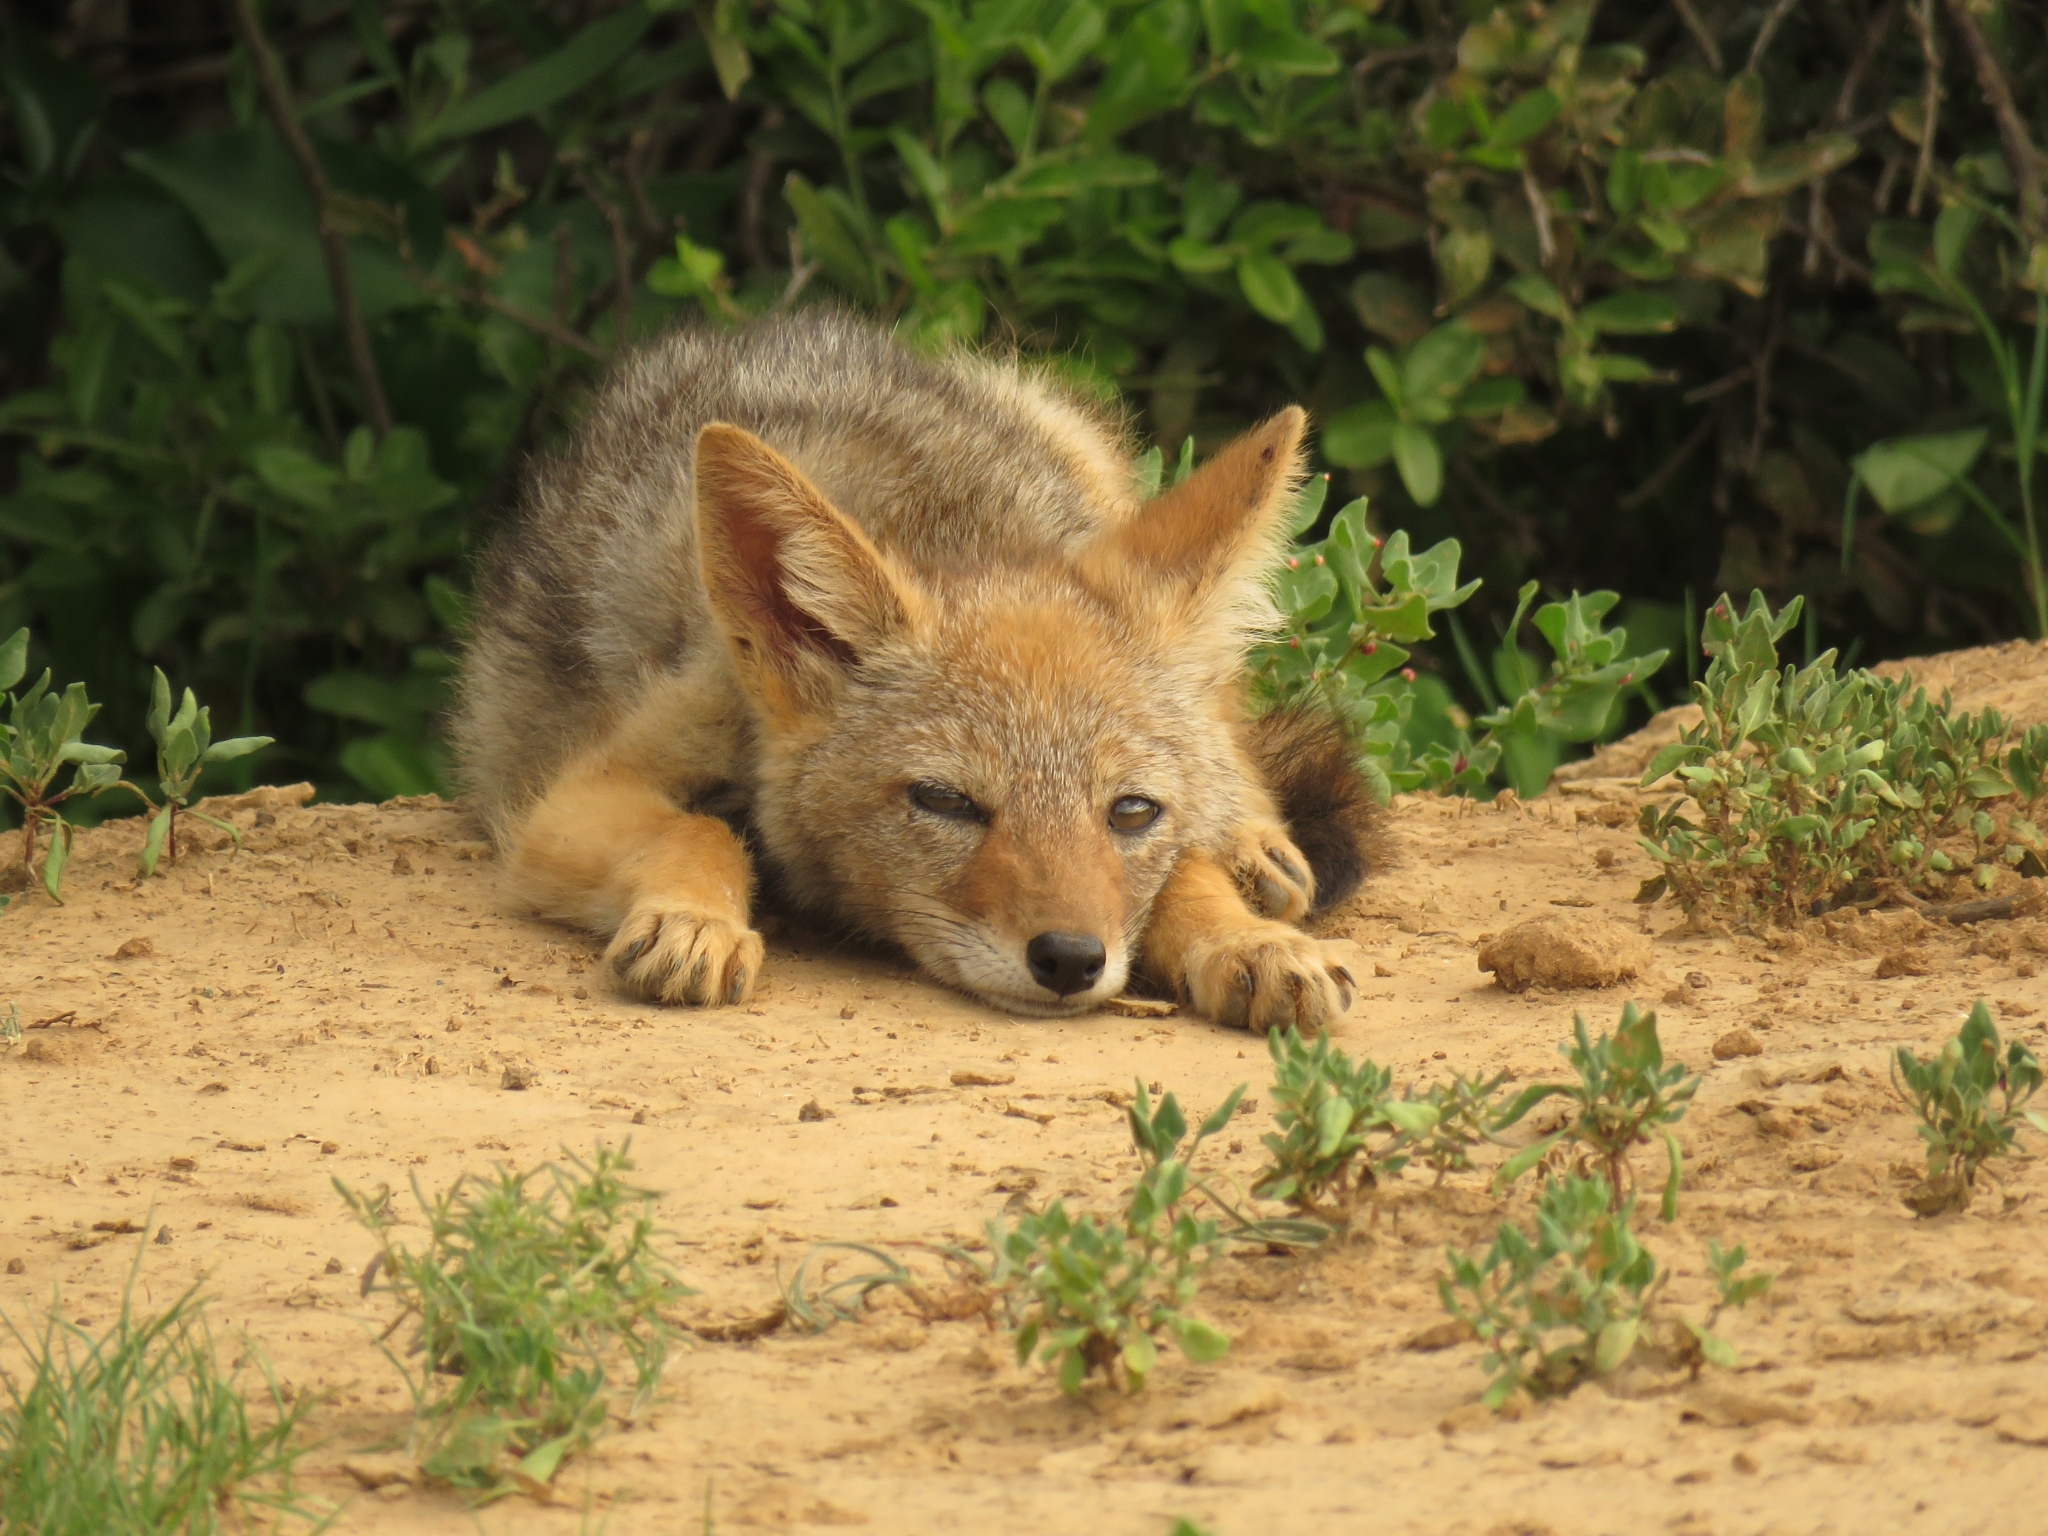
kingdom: Animalia
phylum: Chordata
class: Mammalia
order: Carnivora
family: Canidae
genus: Lupulella
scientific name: Lupulella
